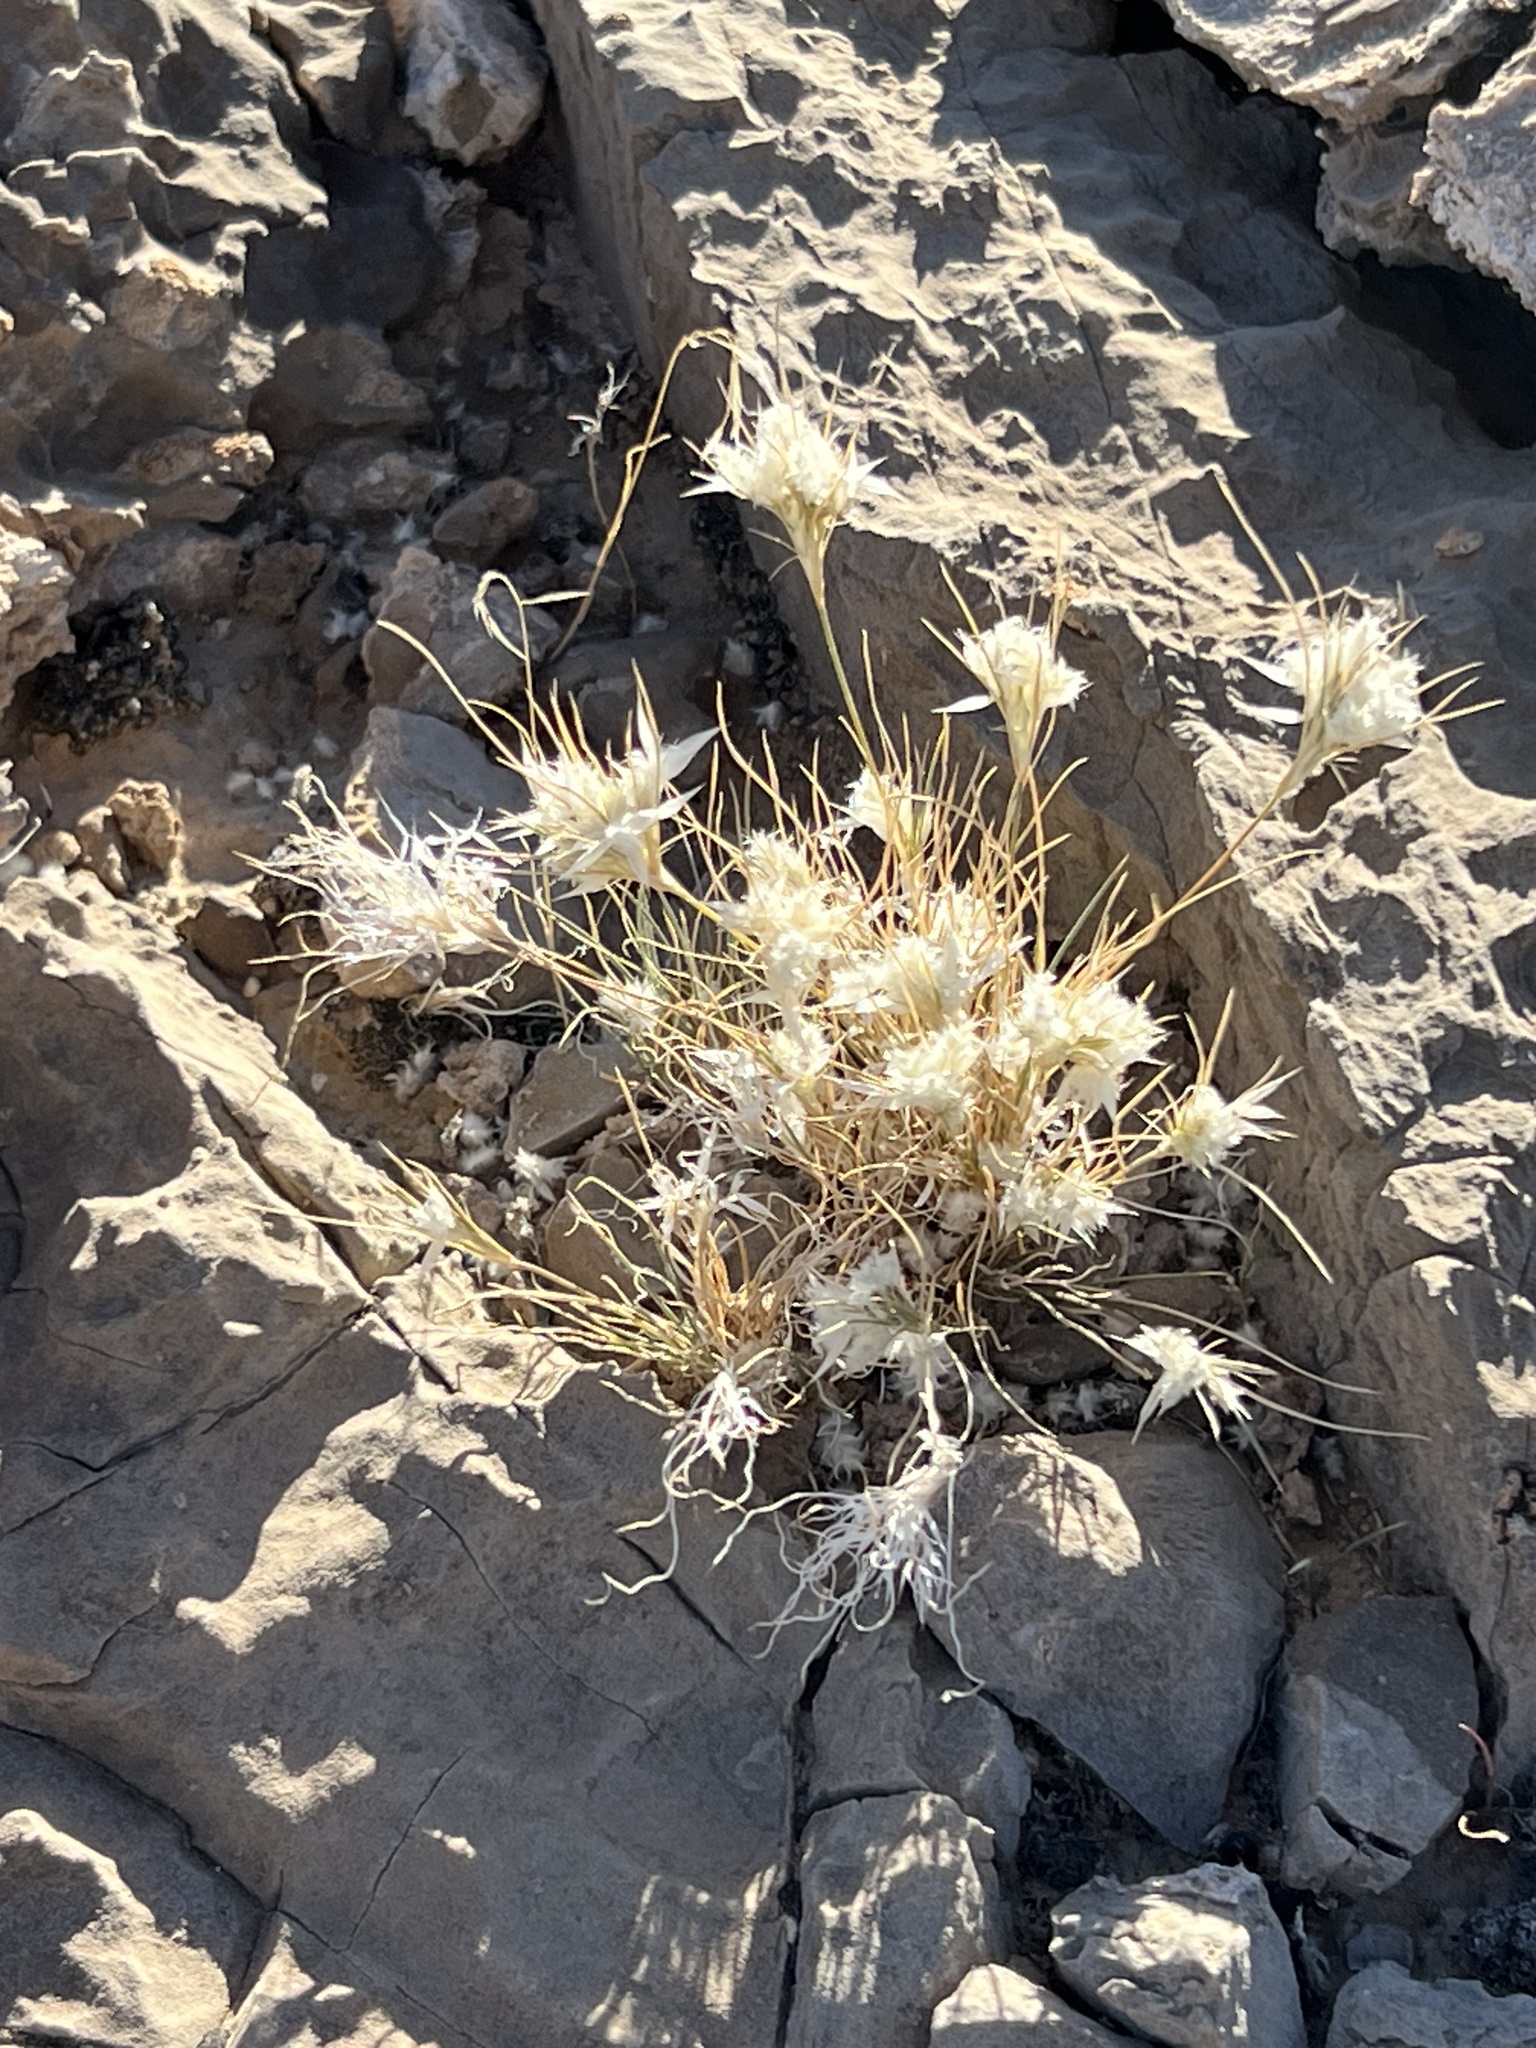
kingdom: Plantae
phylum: Tracheophyta
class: Liliopsida
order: Poales
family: Poaceae
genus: Dasyochloa
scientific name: Dasyochloa pulchella
